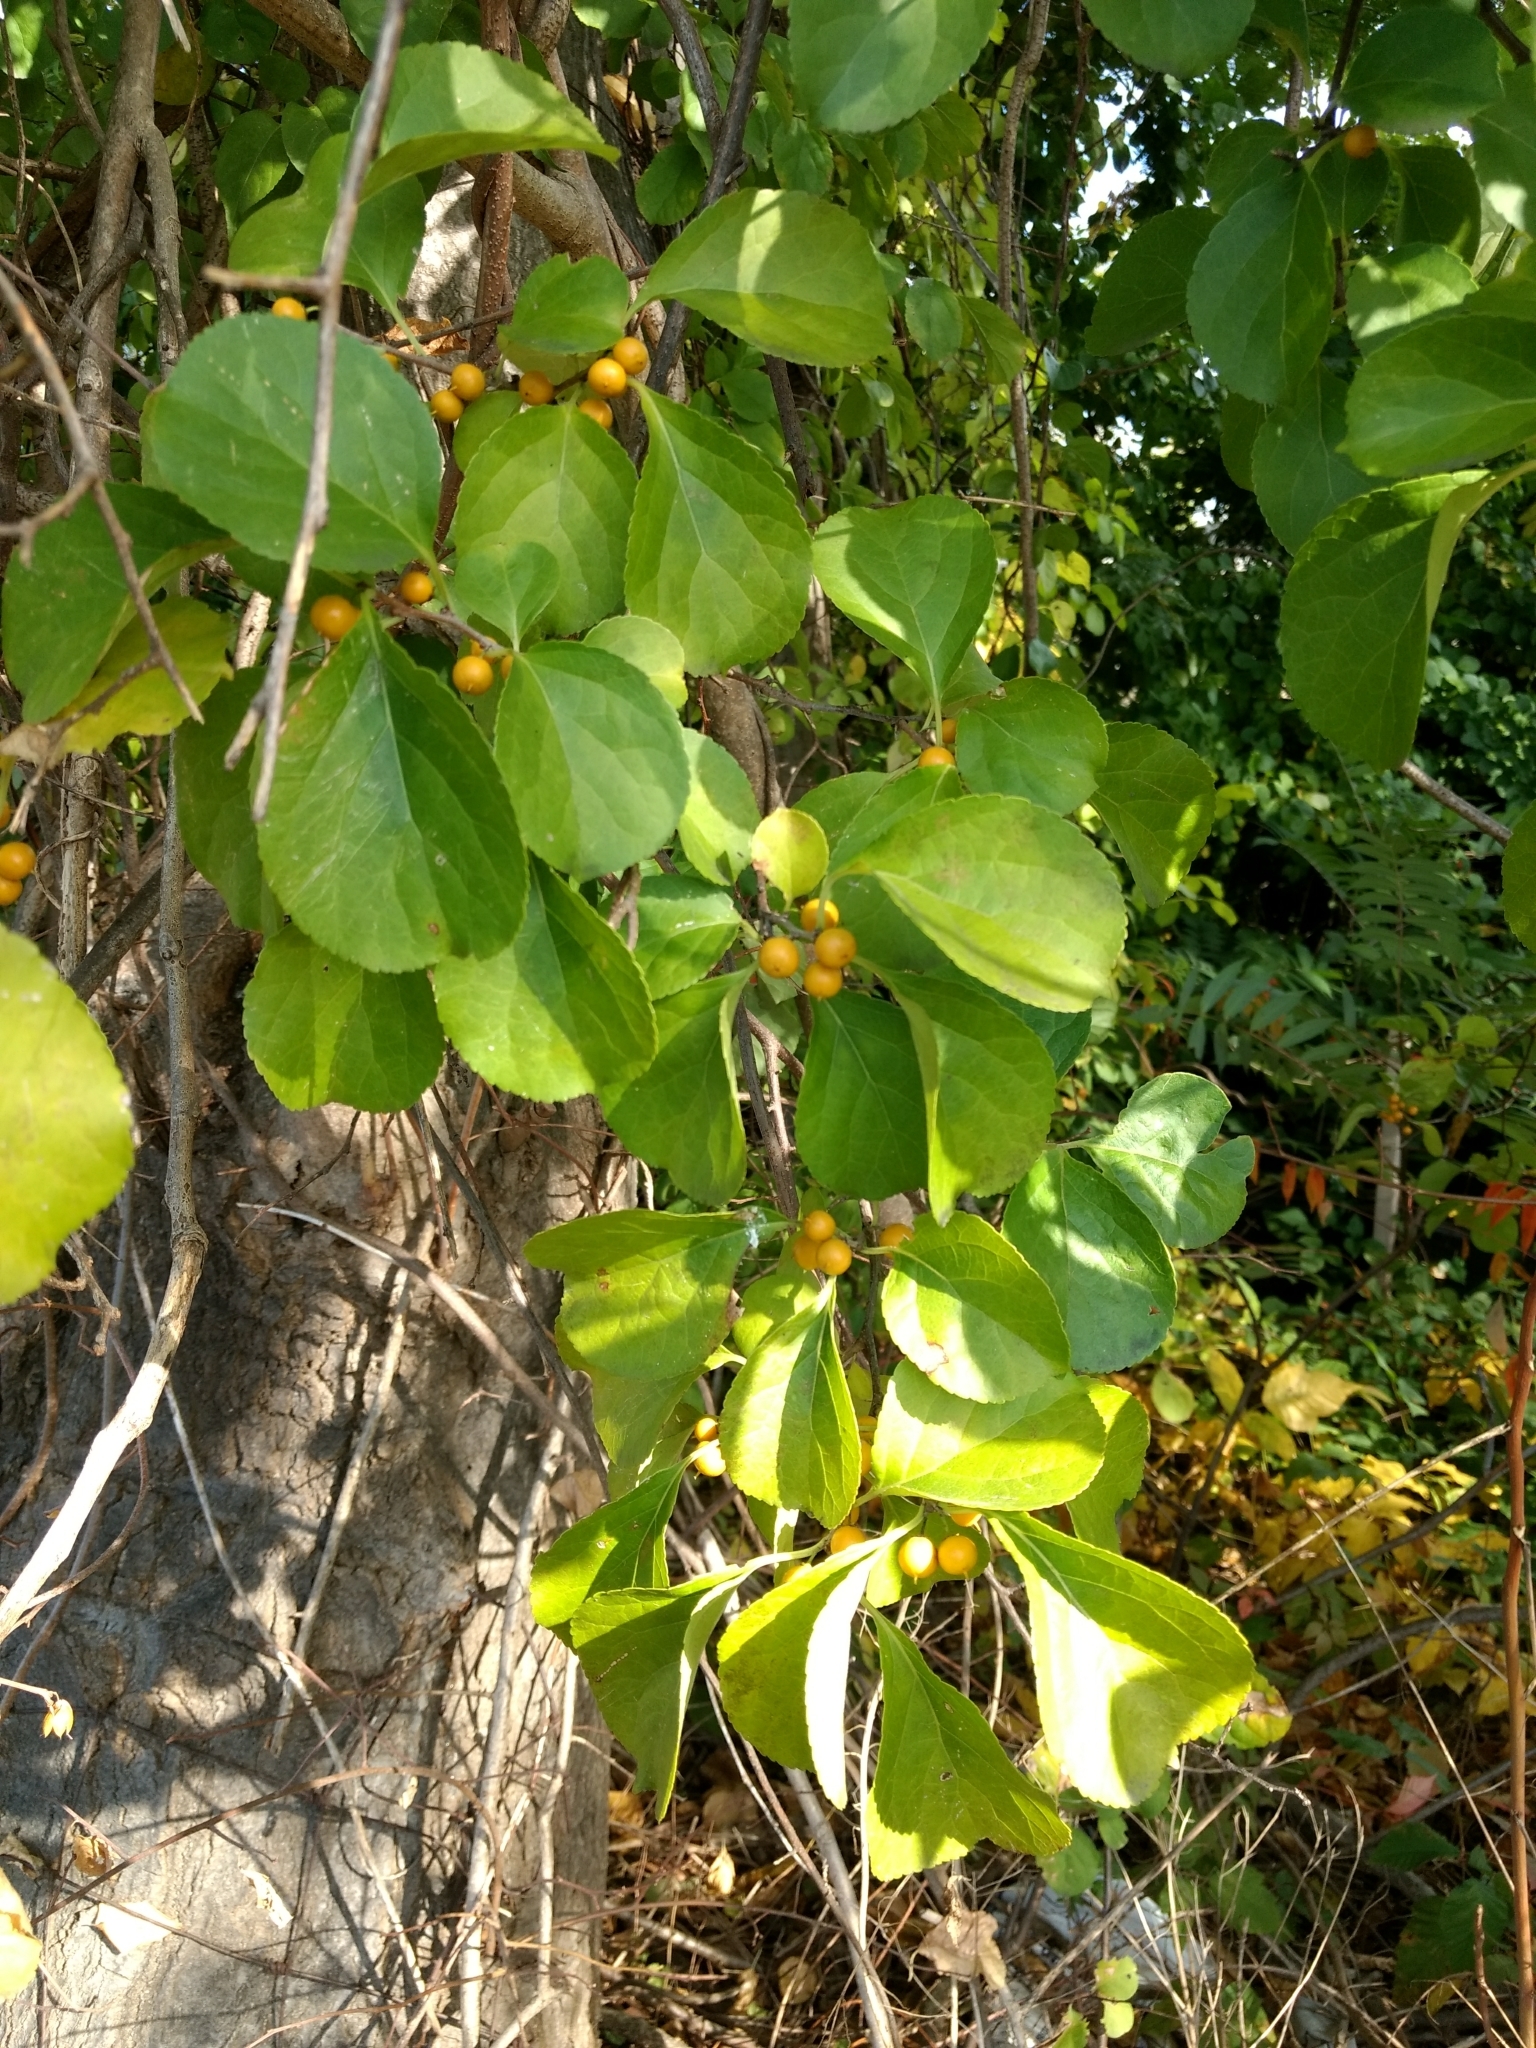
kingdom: Plantae
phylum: Tracheophyta
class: Magnoliopsida
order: Celastrales
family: Celastraceae
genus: Celastrus
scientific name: Celastrus orbiculatus
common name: Oriental bittersweet
